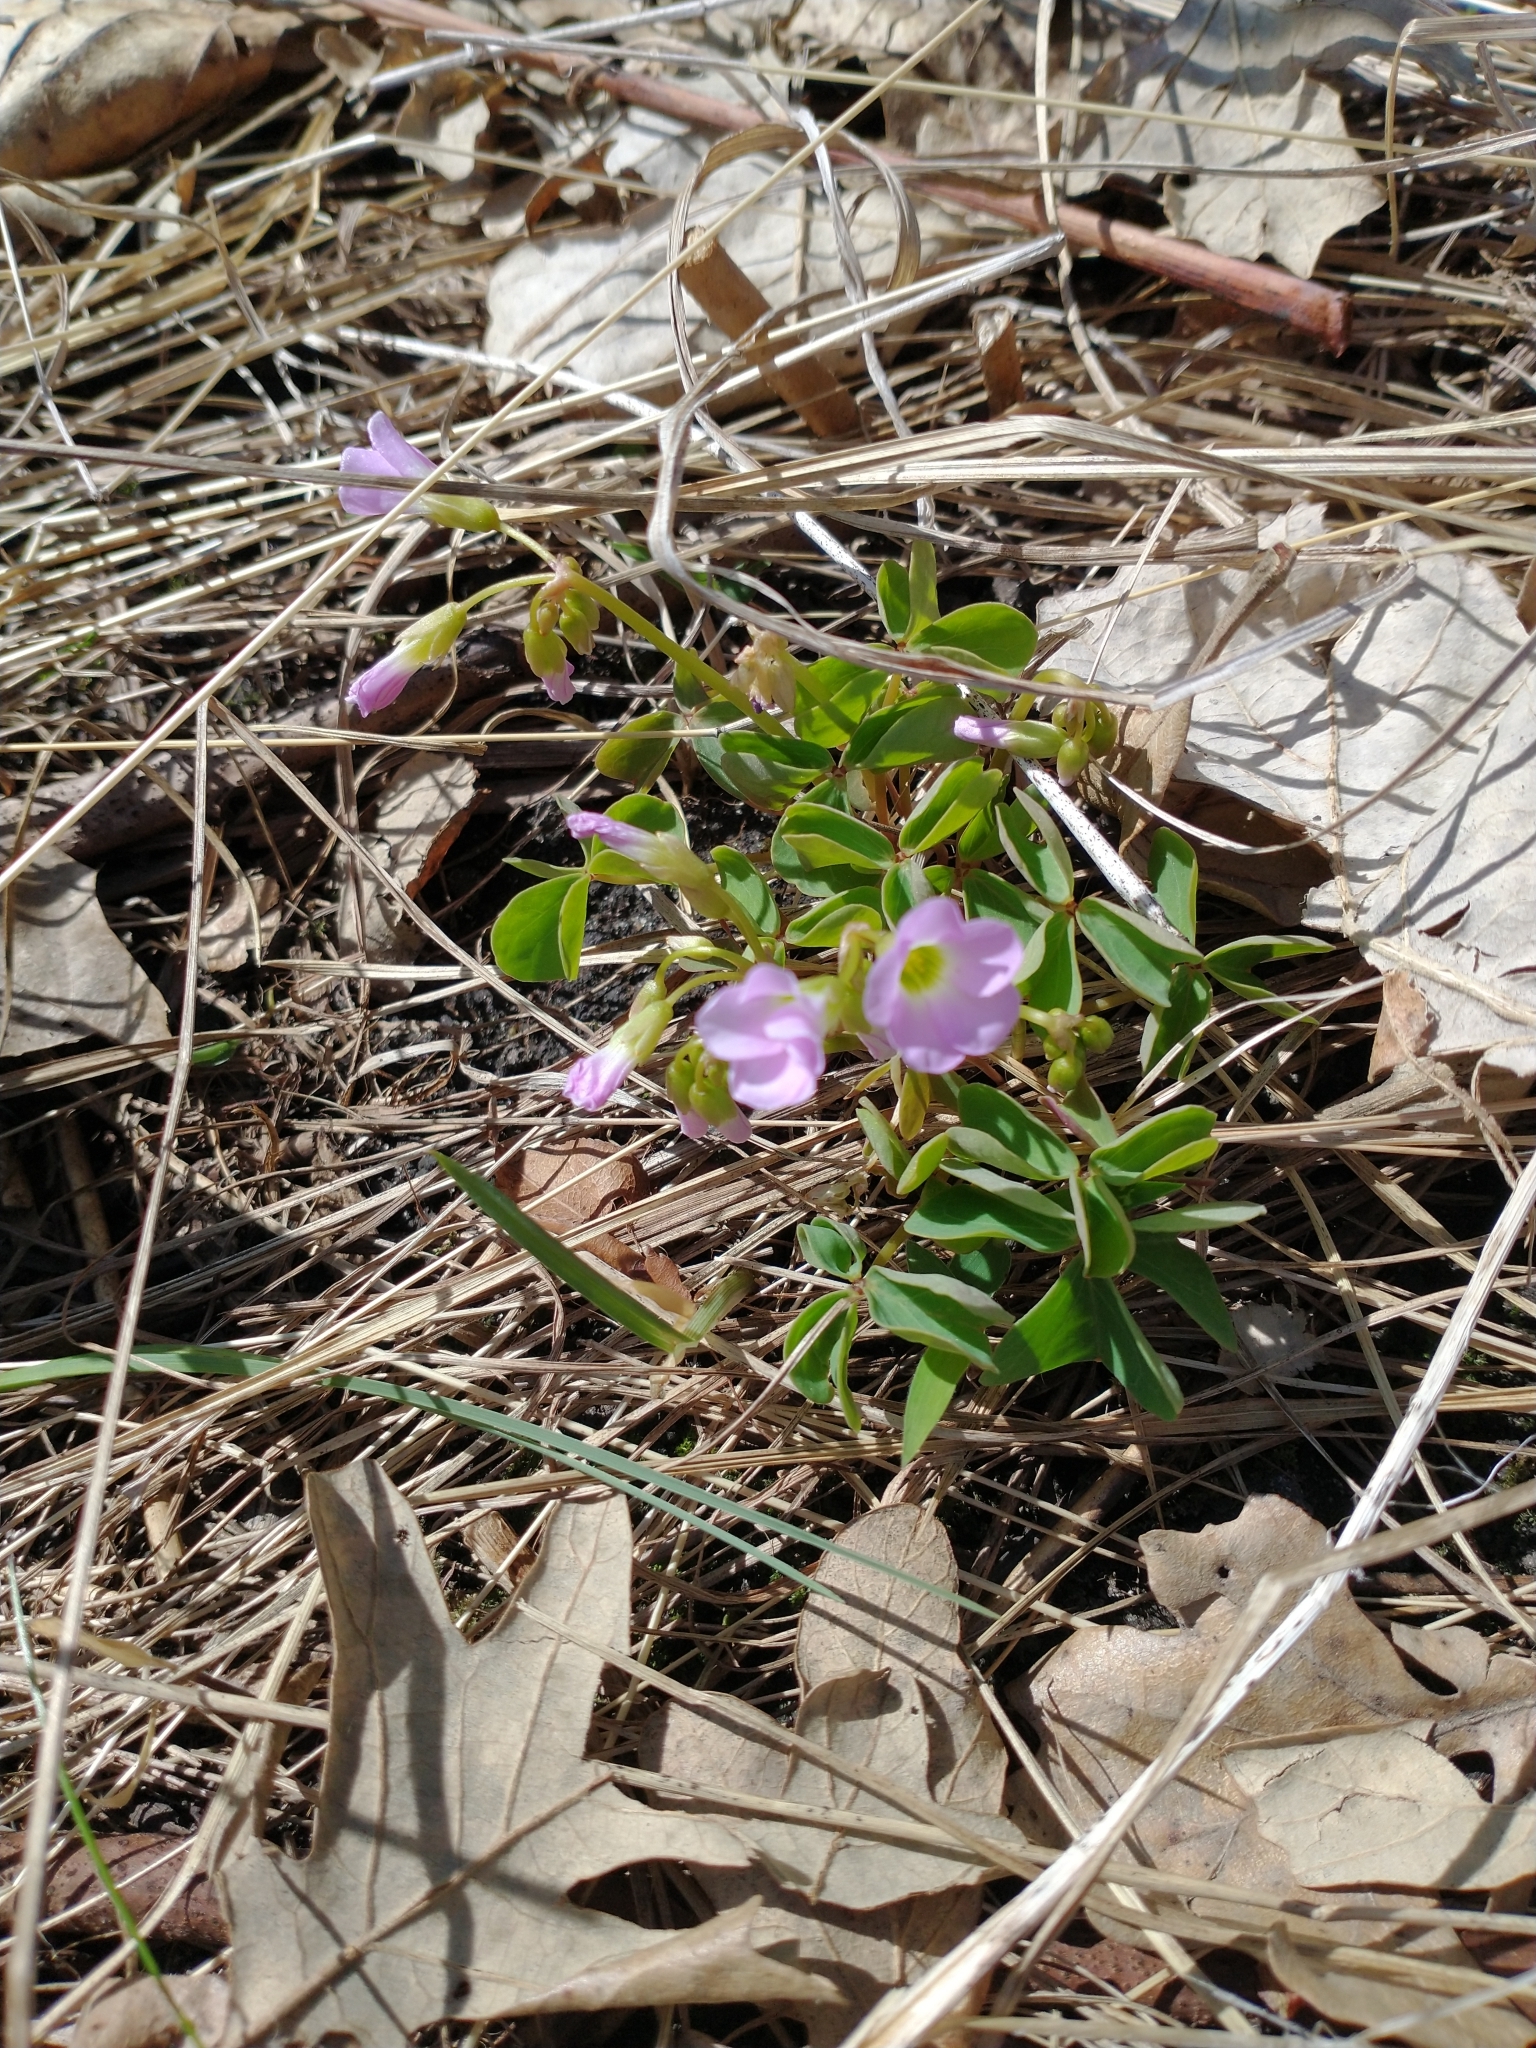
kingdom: Plantae
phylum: Tracheophyta
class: Magnoliopsida
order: Oxalidales
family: Oxalidaceae
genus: Oxalis
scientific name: Oxalis violacea
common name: Violet wood-sorrel
